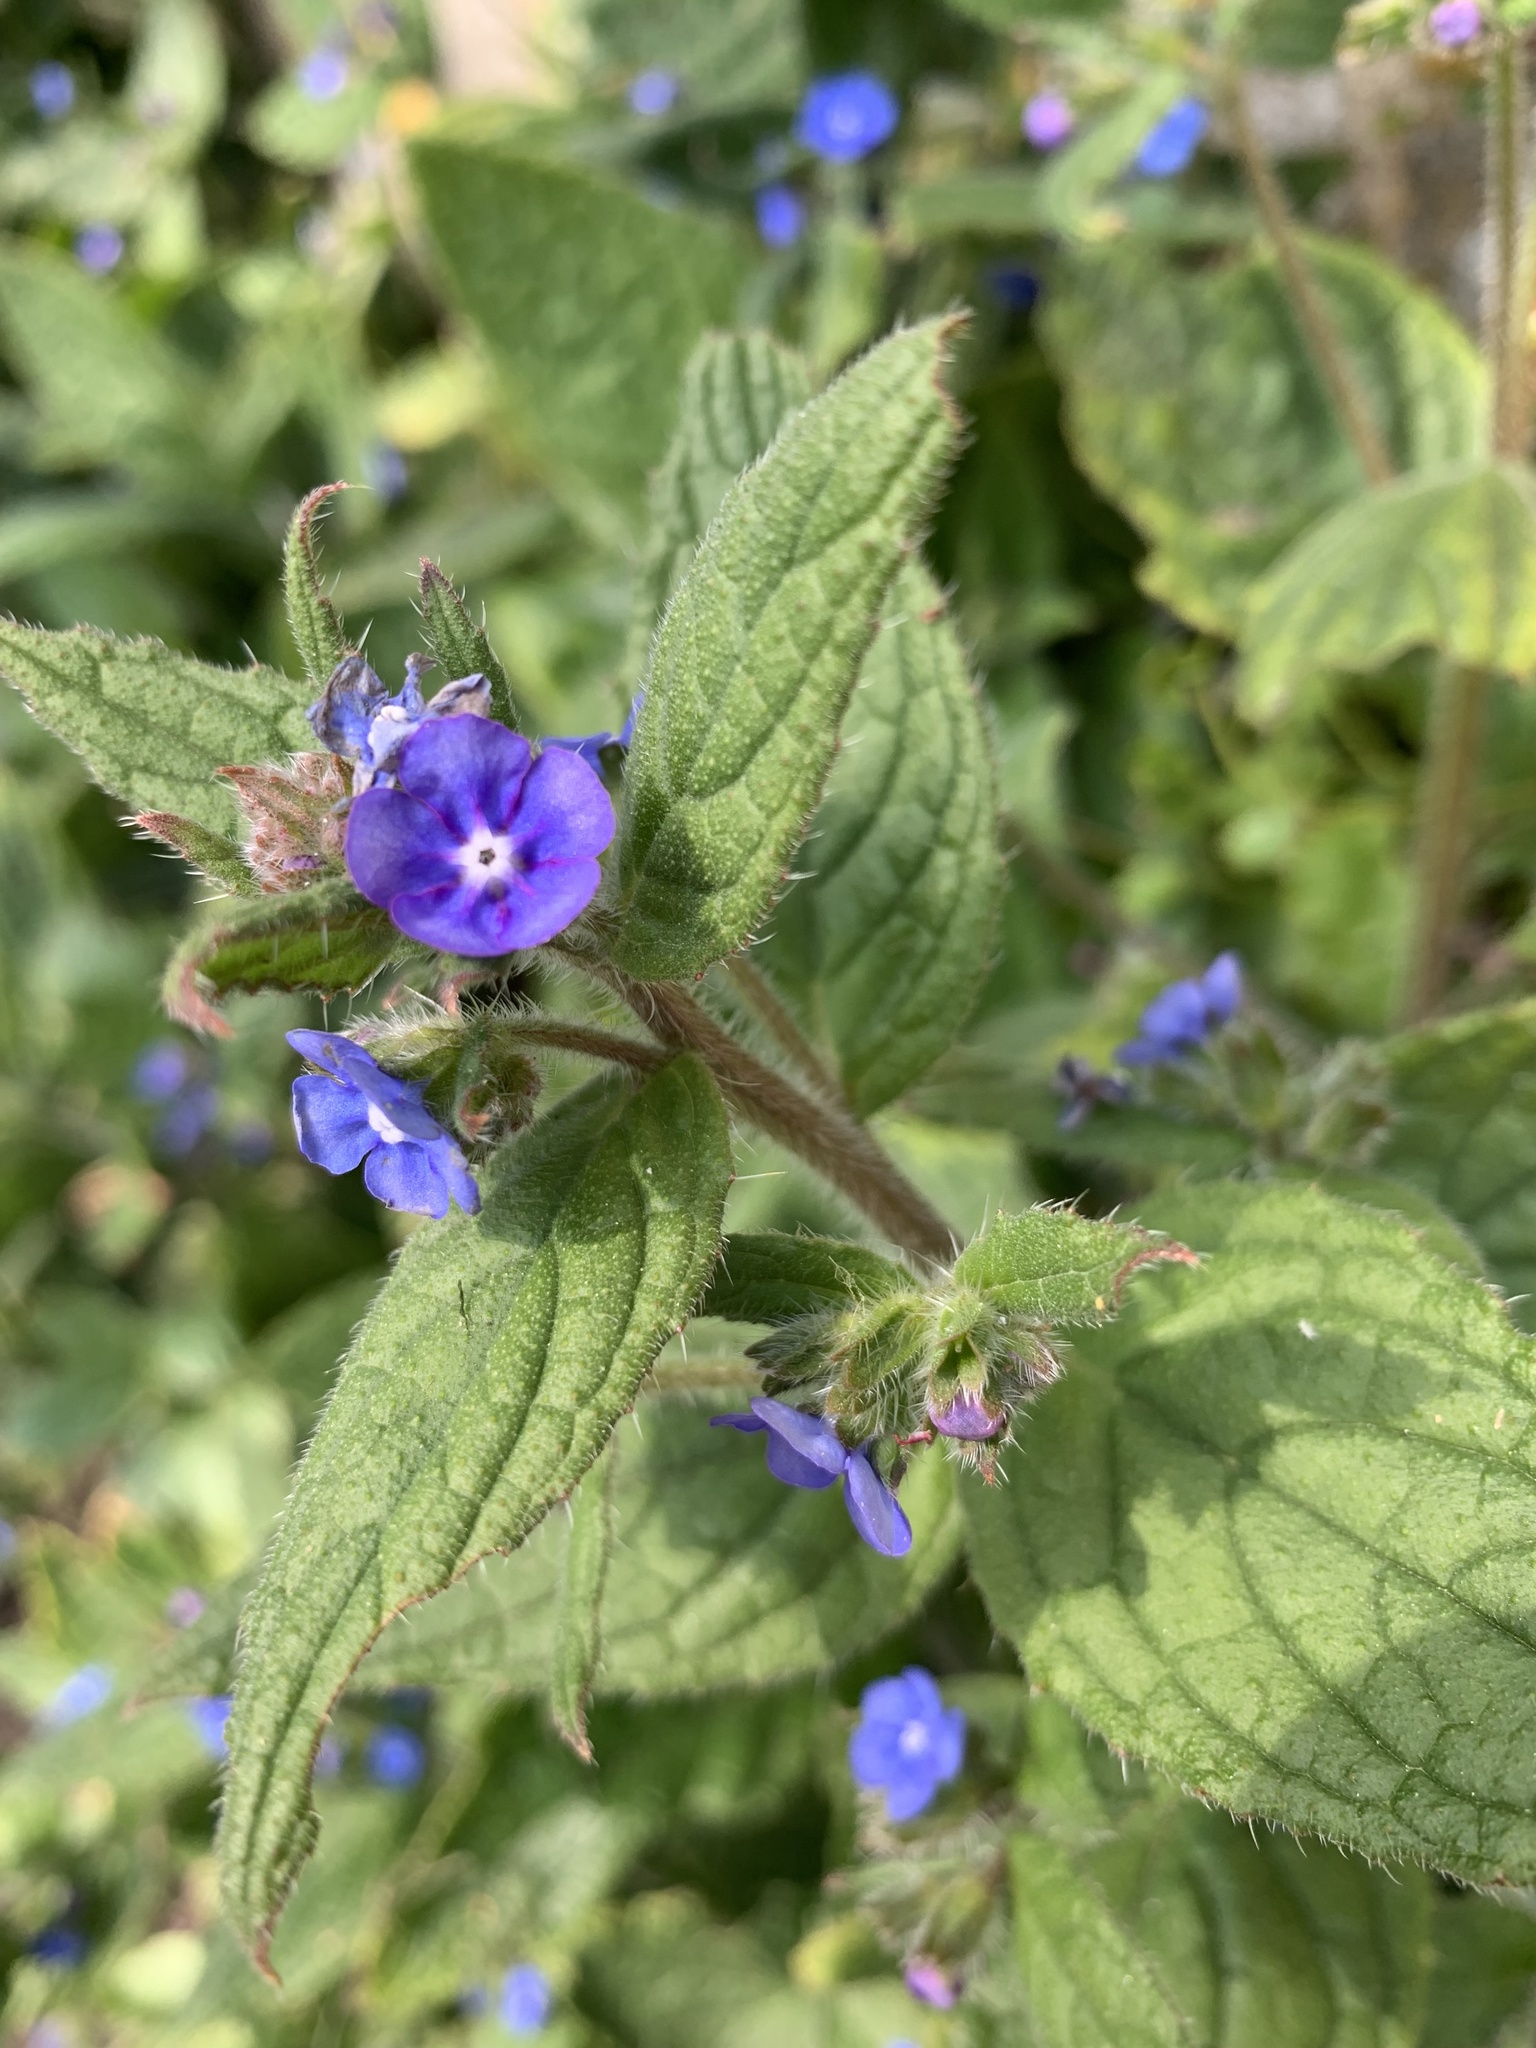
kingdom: Plantae
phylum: Tracheophyta
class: Magnoliopsida
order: Boraginales
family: Boraginaceae
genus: Pentaglottis
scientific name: Pentaglottis sempervirens
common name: Green alkanet
